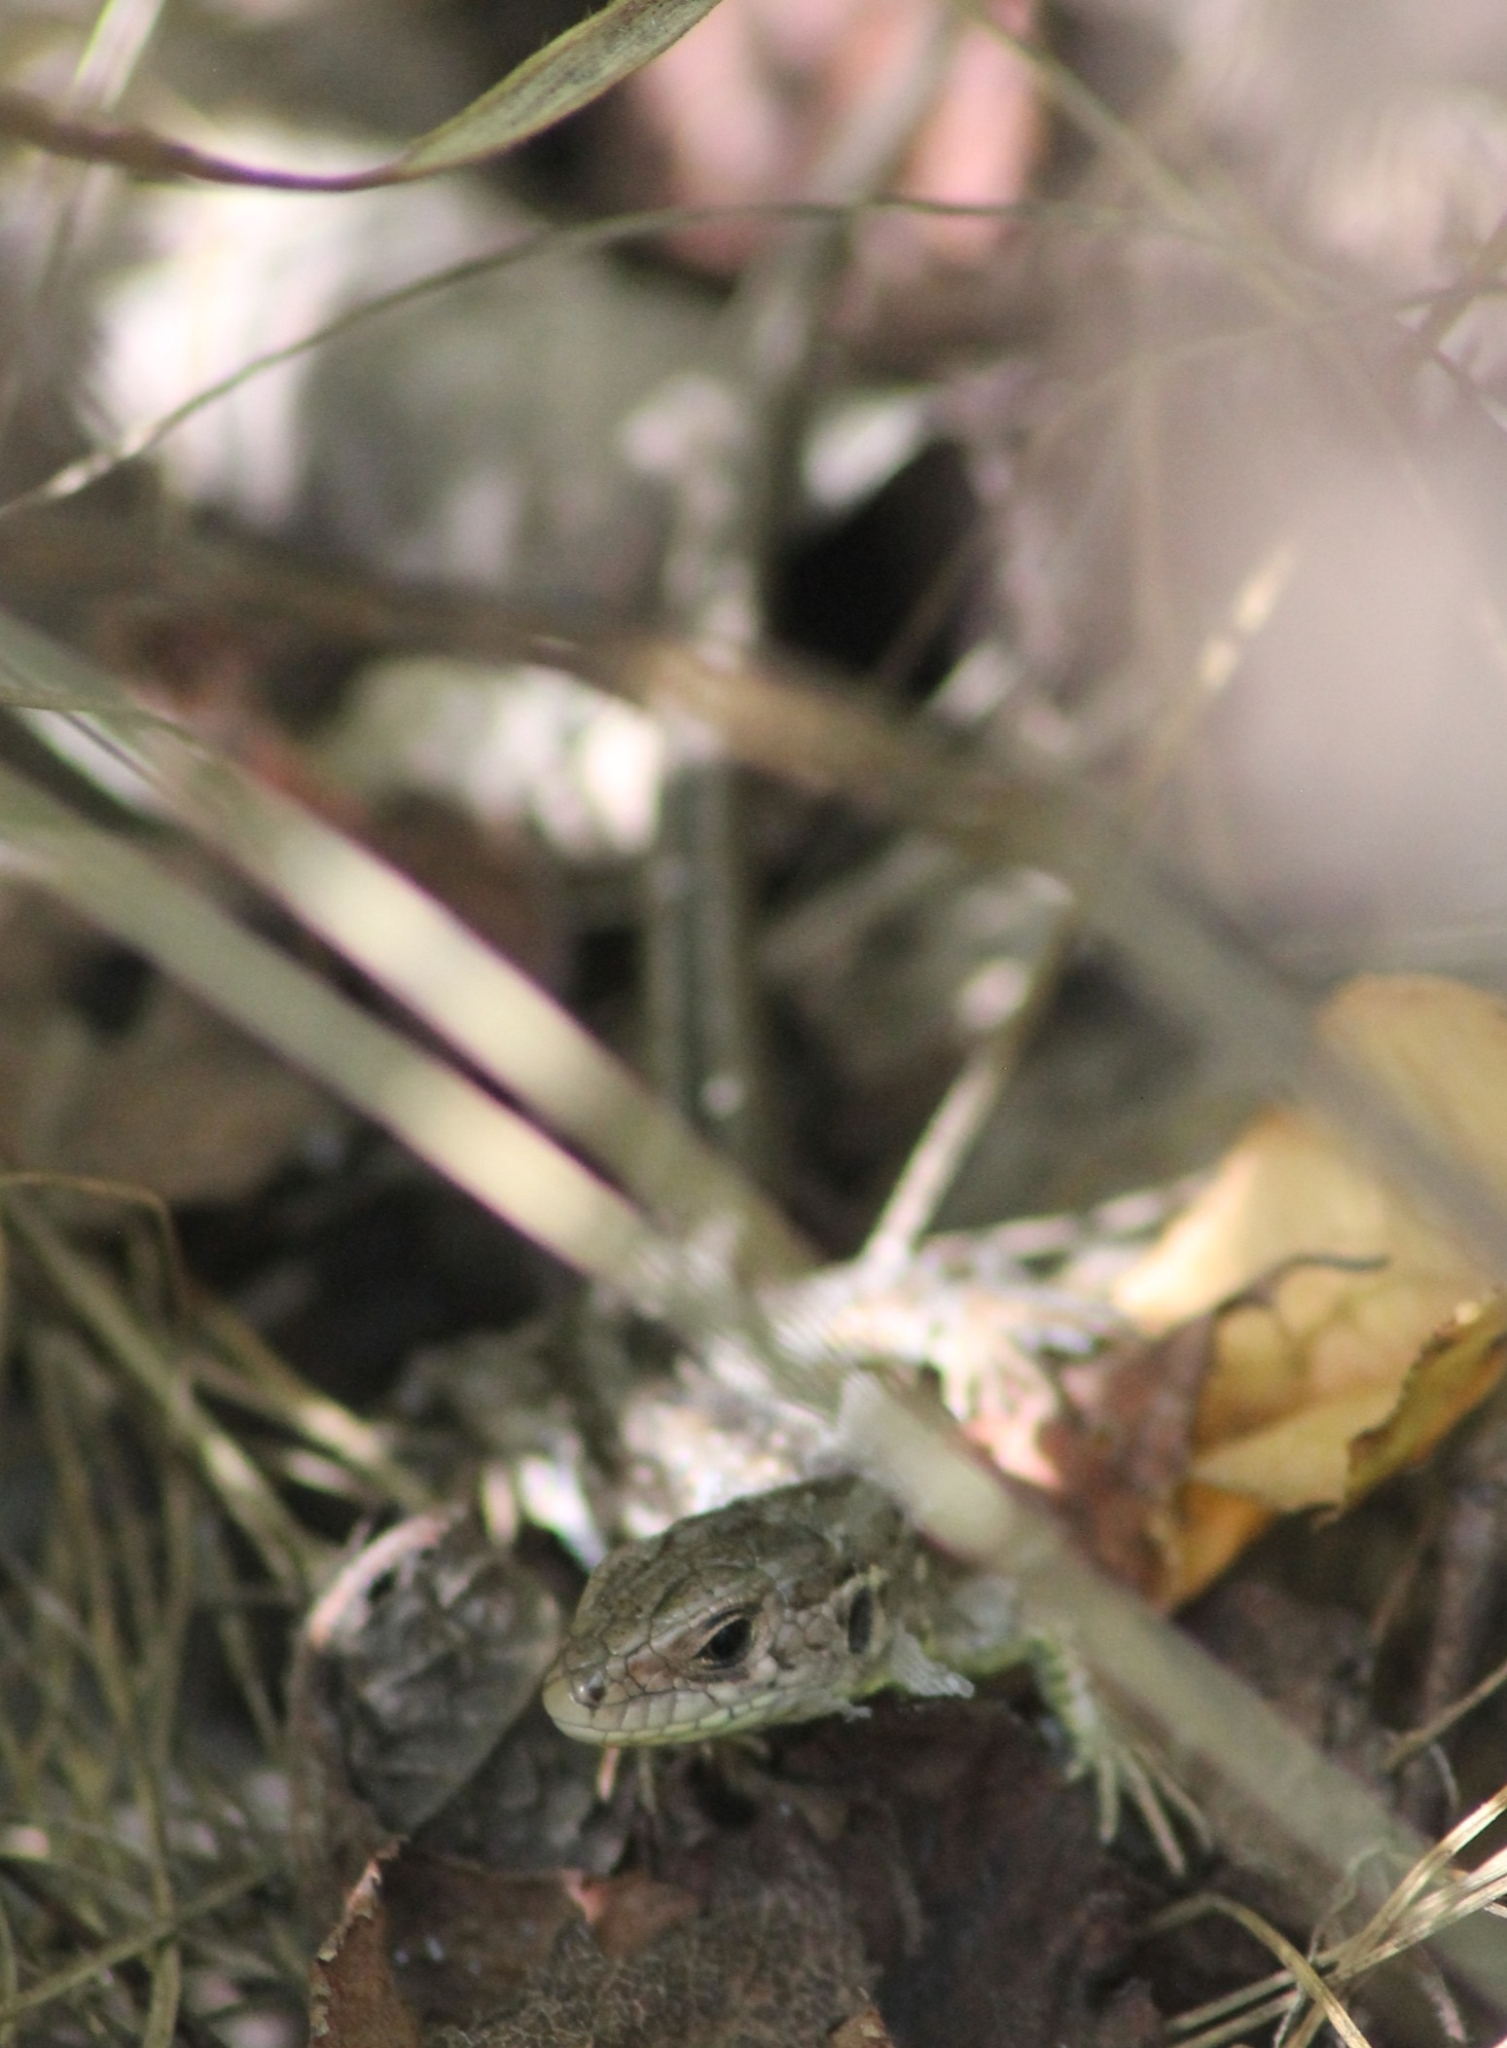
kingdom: Animalia
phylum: Chordata
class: Squamata
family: Lacertidae
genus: Lacerta
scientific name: Lacerta agilis
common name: Sand lizard
